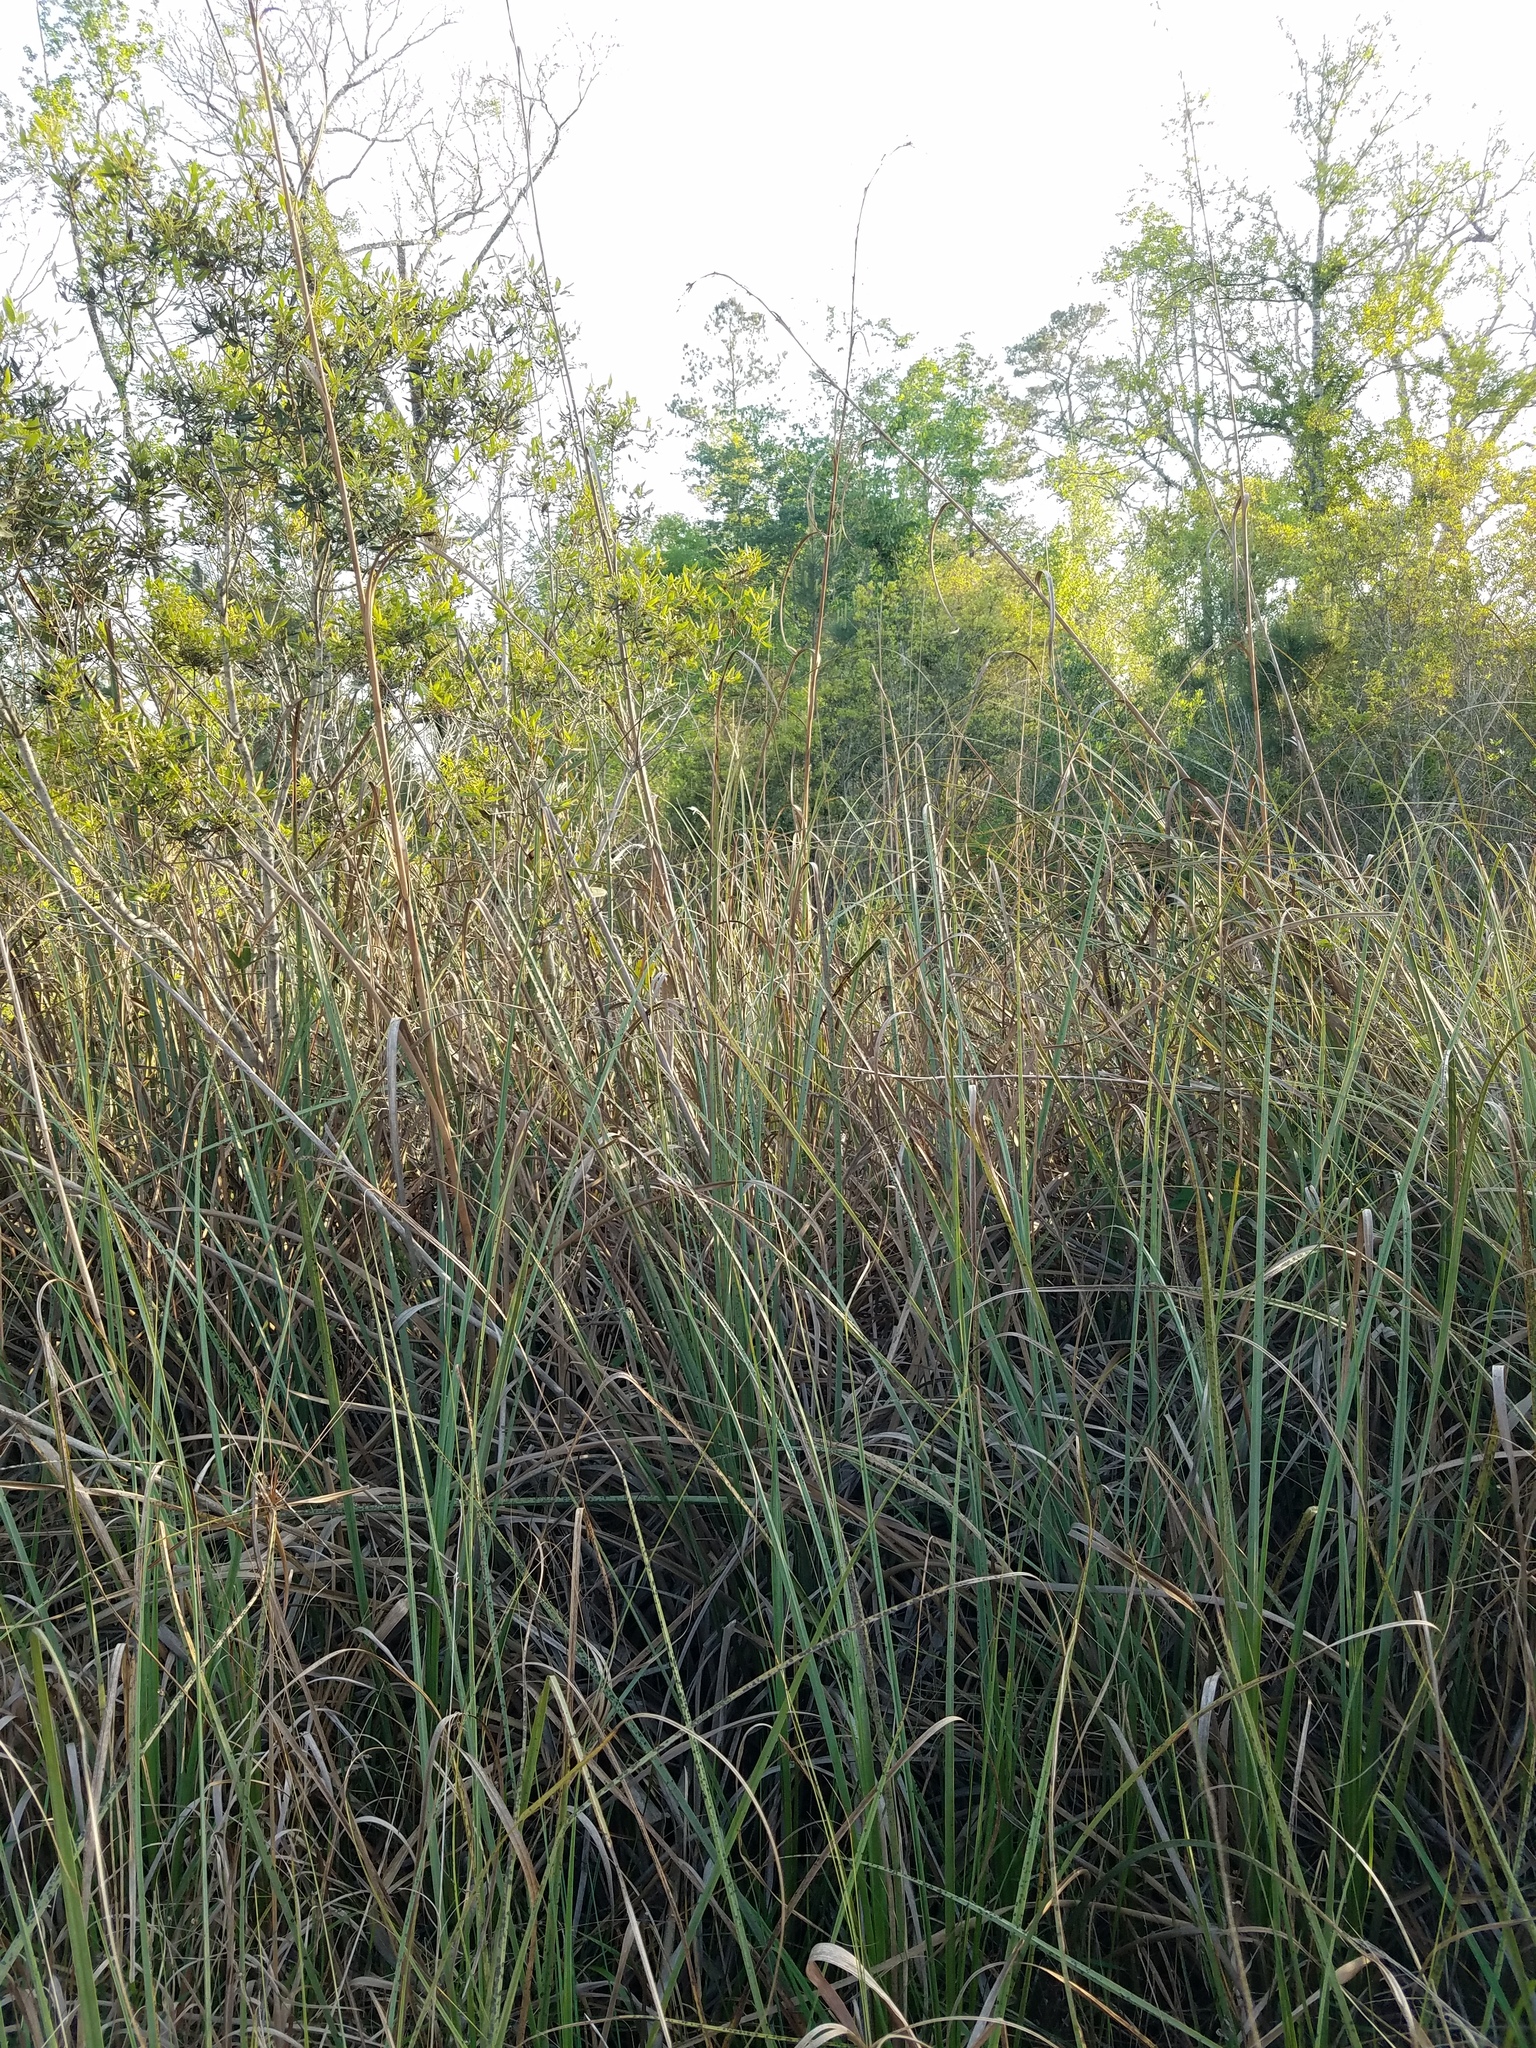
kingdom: Plantae
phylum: Tracheophyta
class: Liliopsida
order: Poales
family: Cyperaceae
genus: Cladium
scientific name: Cladium mariscus
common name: Great fen-sedge
